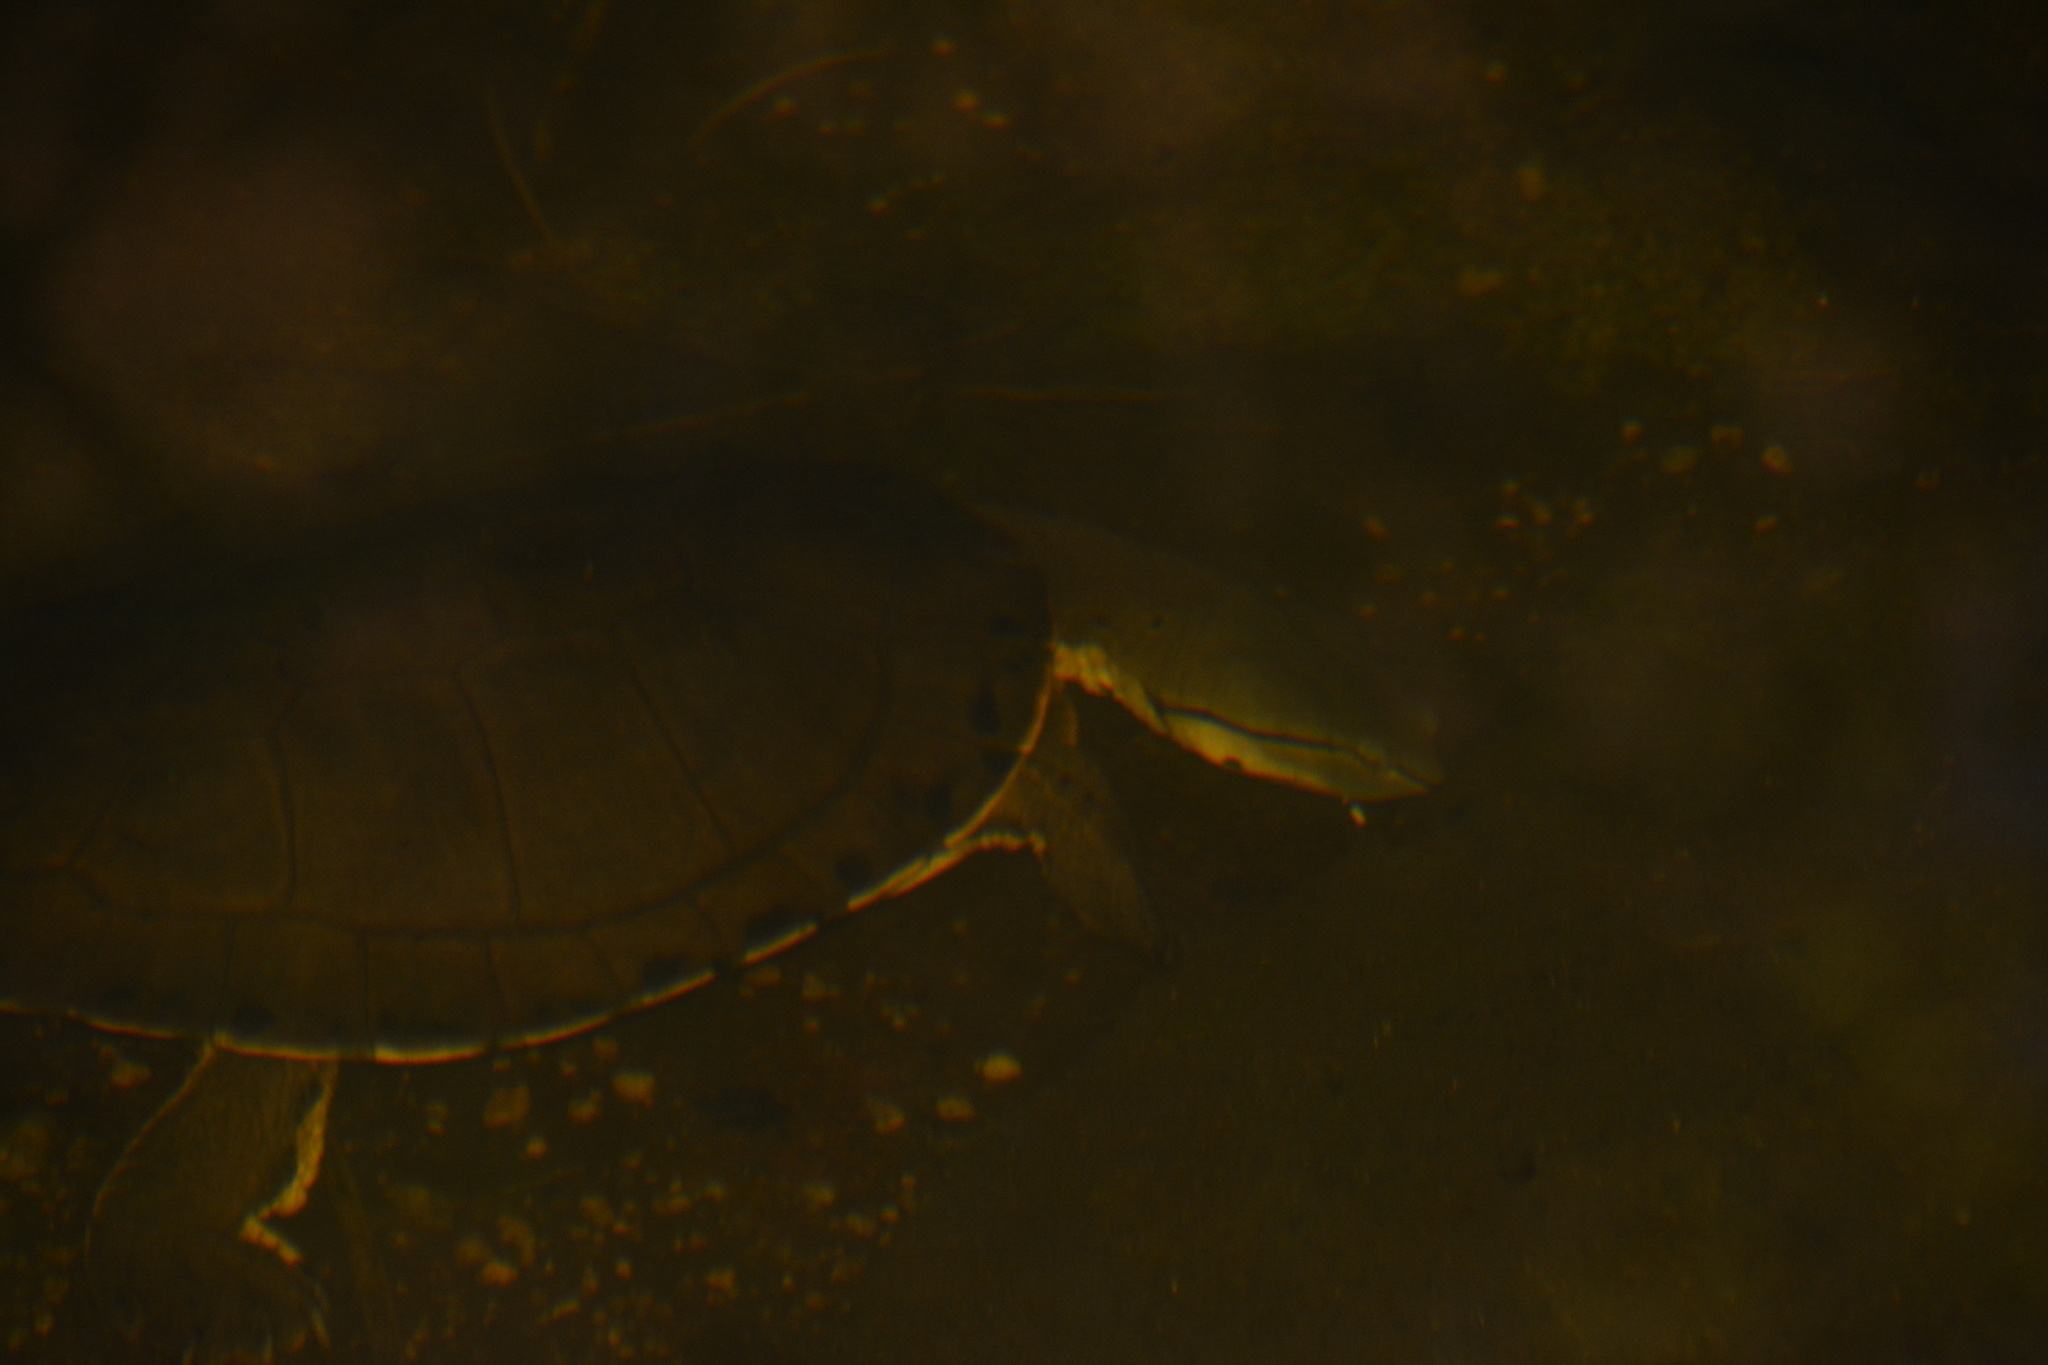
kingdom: Animalia
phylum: Chordata
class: Testudines
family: Chelidae
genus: Phrynops
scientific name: Phrynops hilarii
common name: Side-necked turtle of saint hillaire
